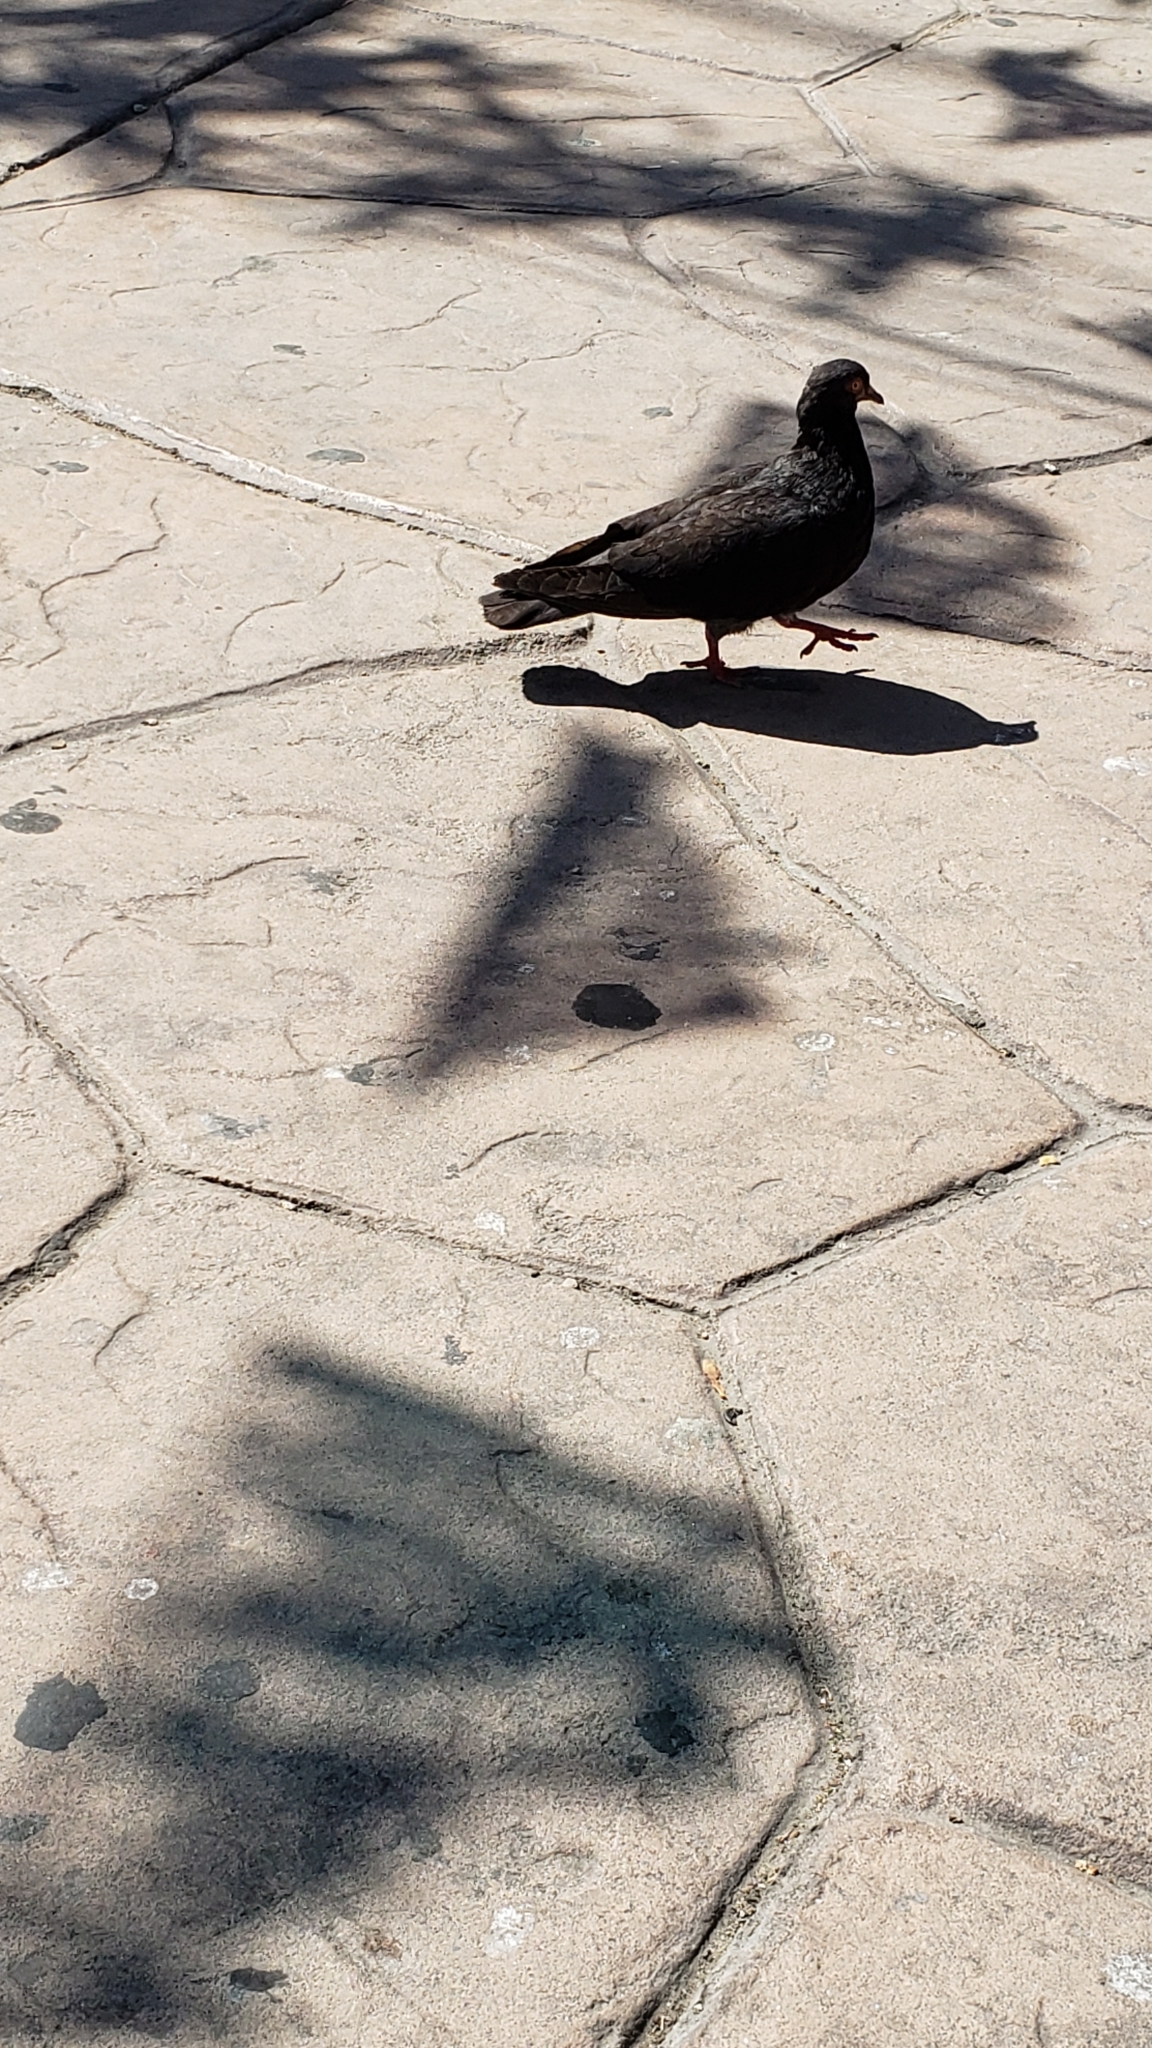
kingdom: Animalia
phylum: Chordata
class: Aves
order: Columbiformes
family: Columbidae
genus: Columba
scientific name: Columba livia
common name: Rock pigeon
